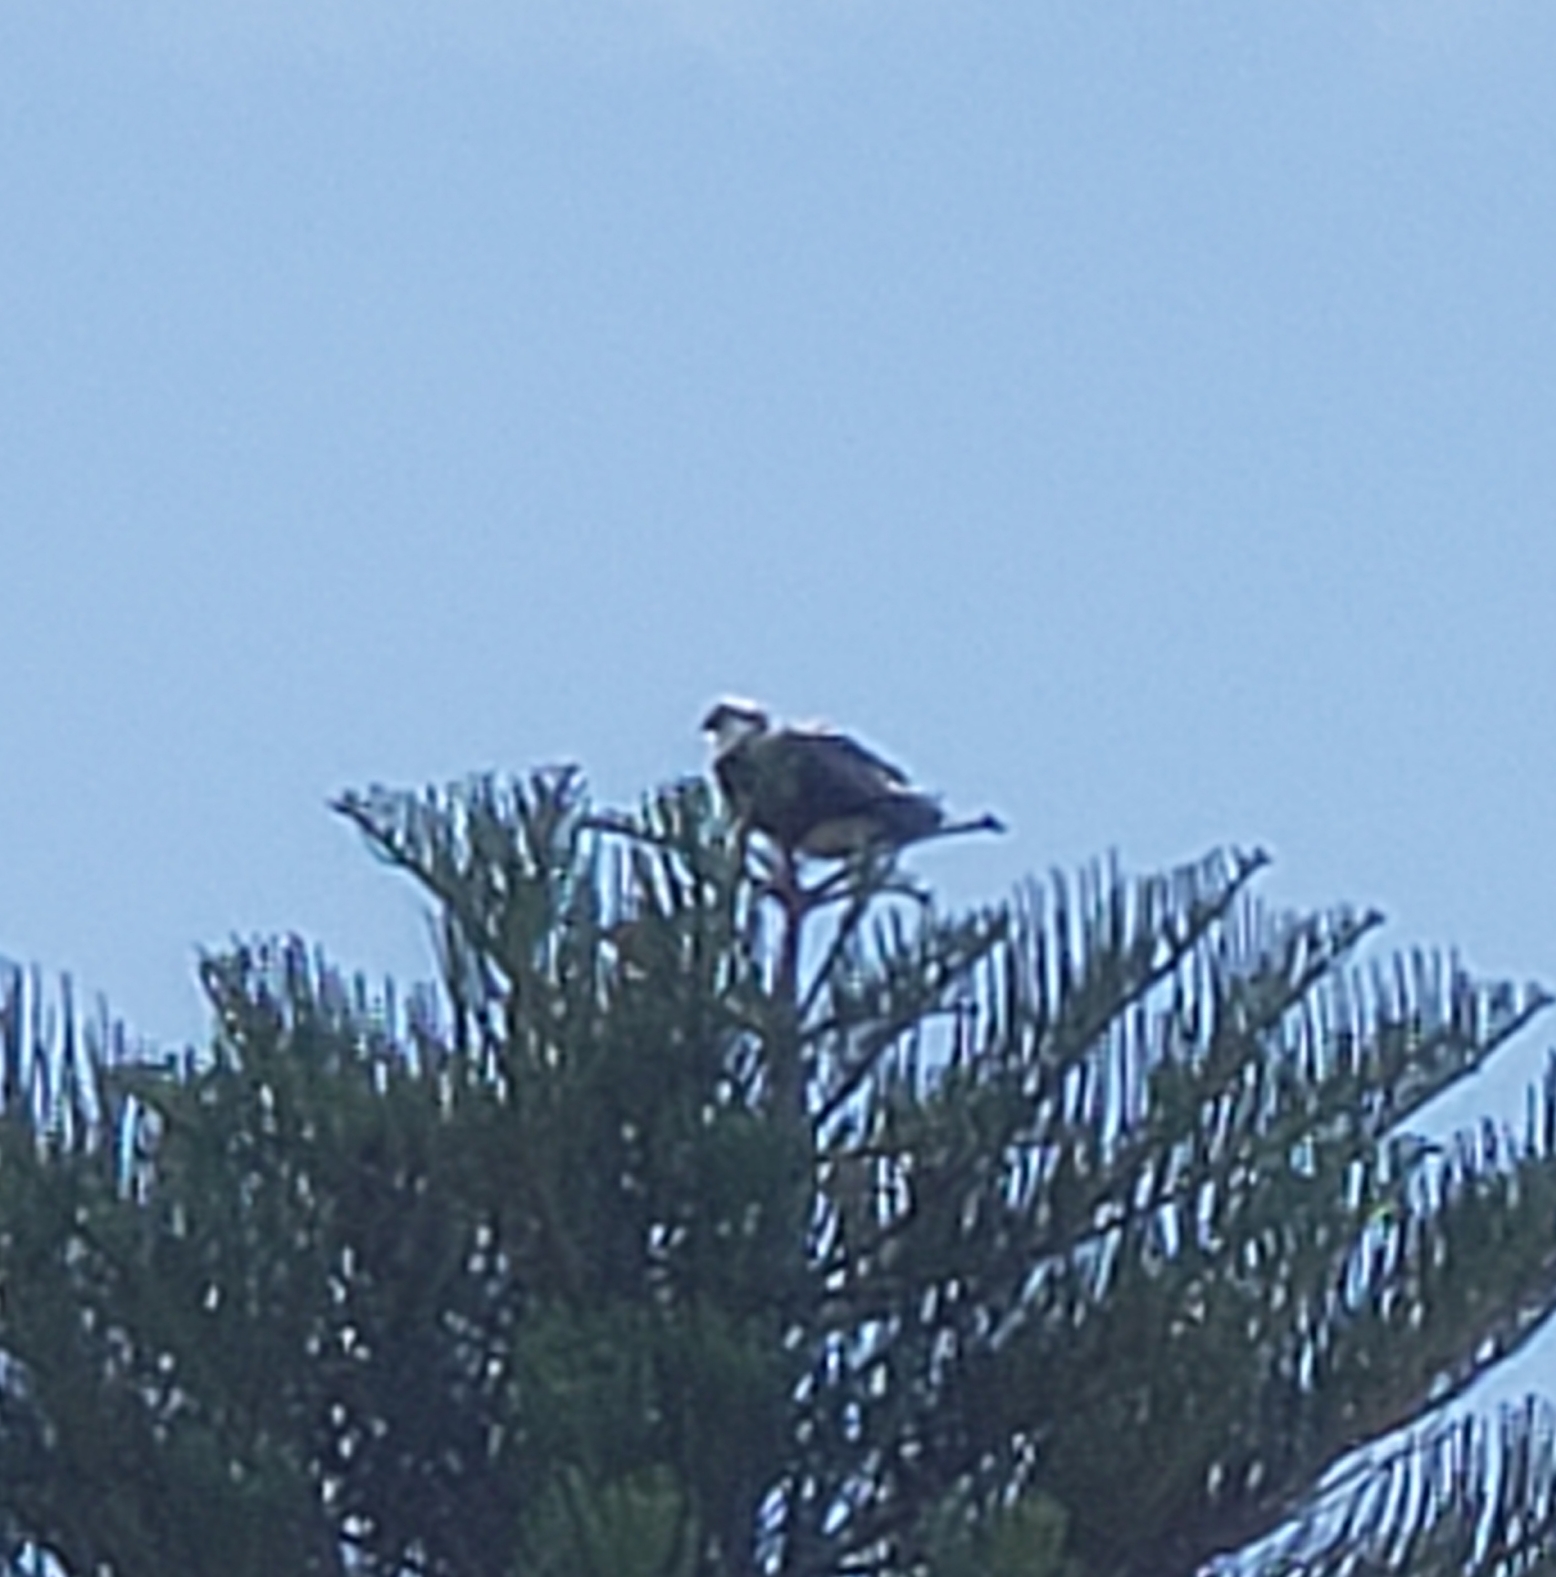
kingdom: Animalia
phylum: Chordata
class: Aves
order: Accipitriformes
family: Pandionidae
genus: Pandion
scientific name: Pandion haliaetus
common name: Osprey
